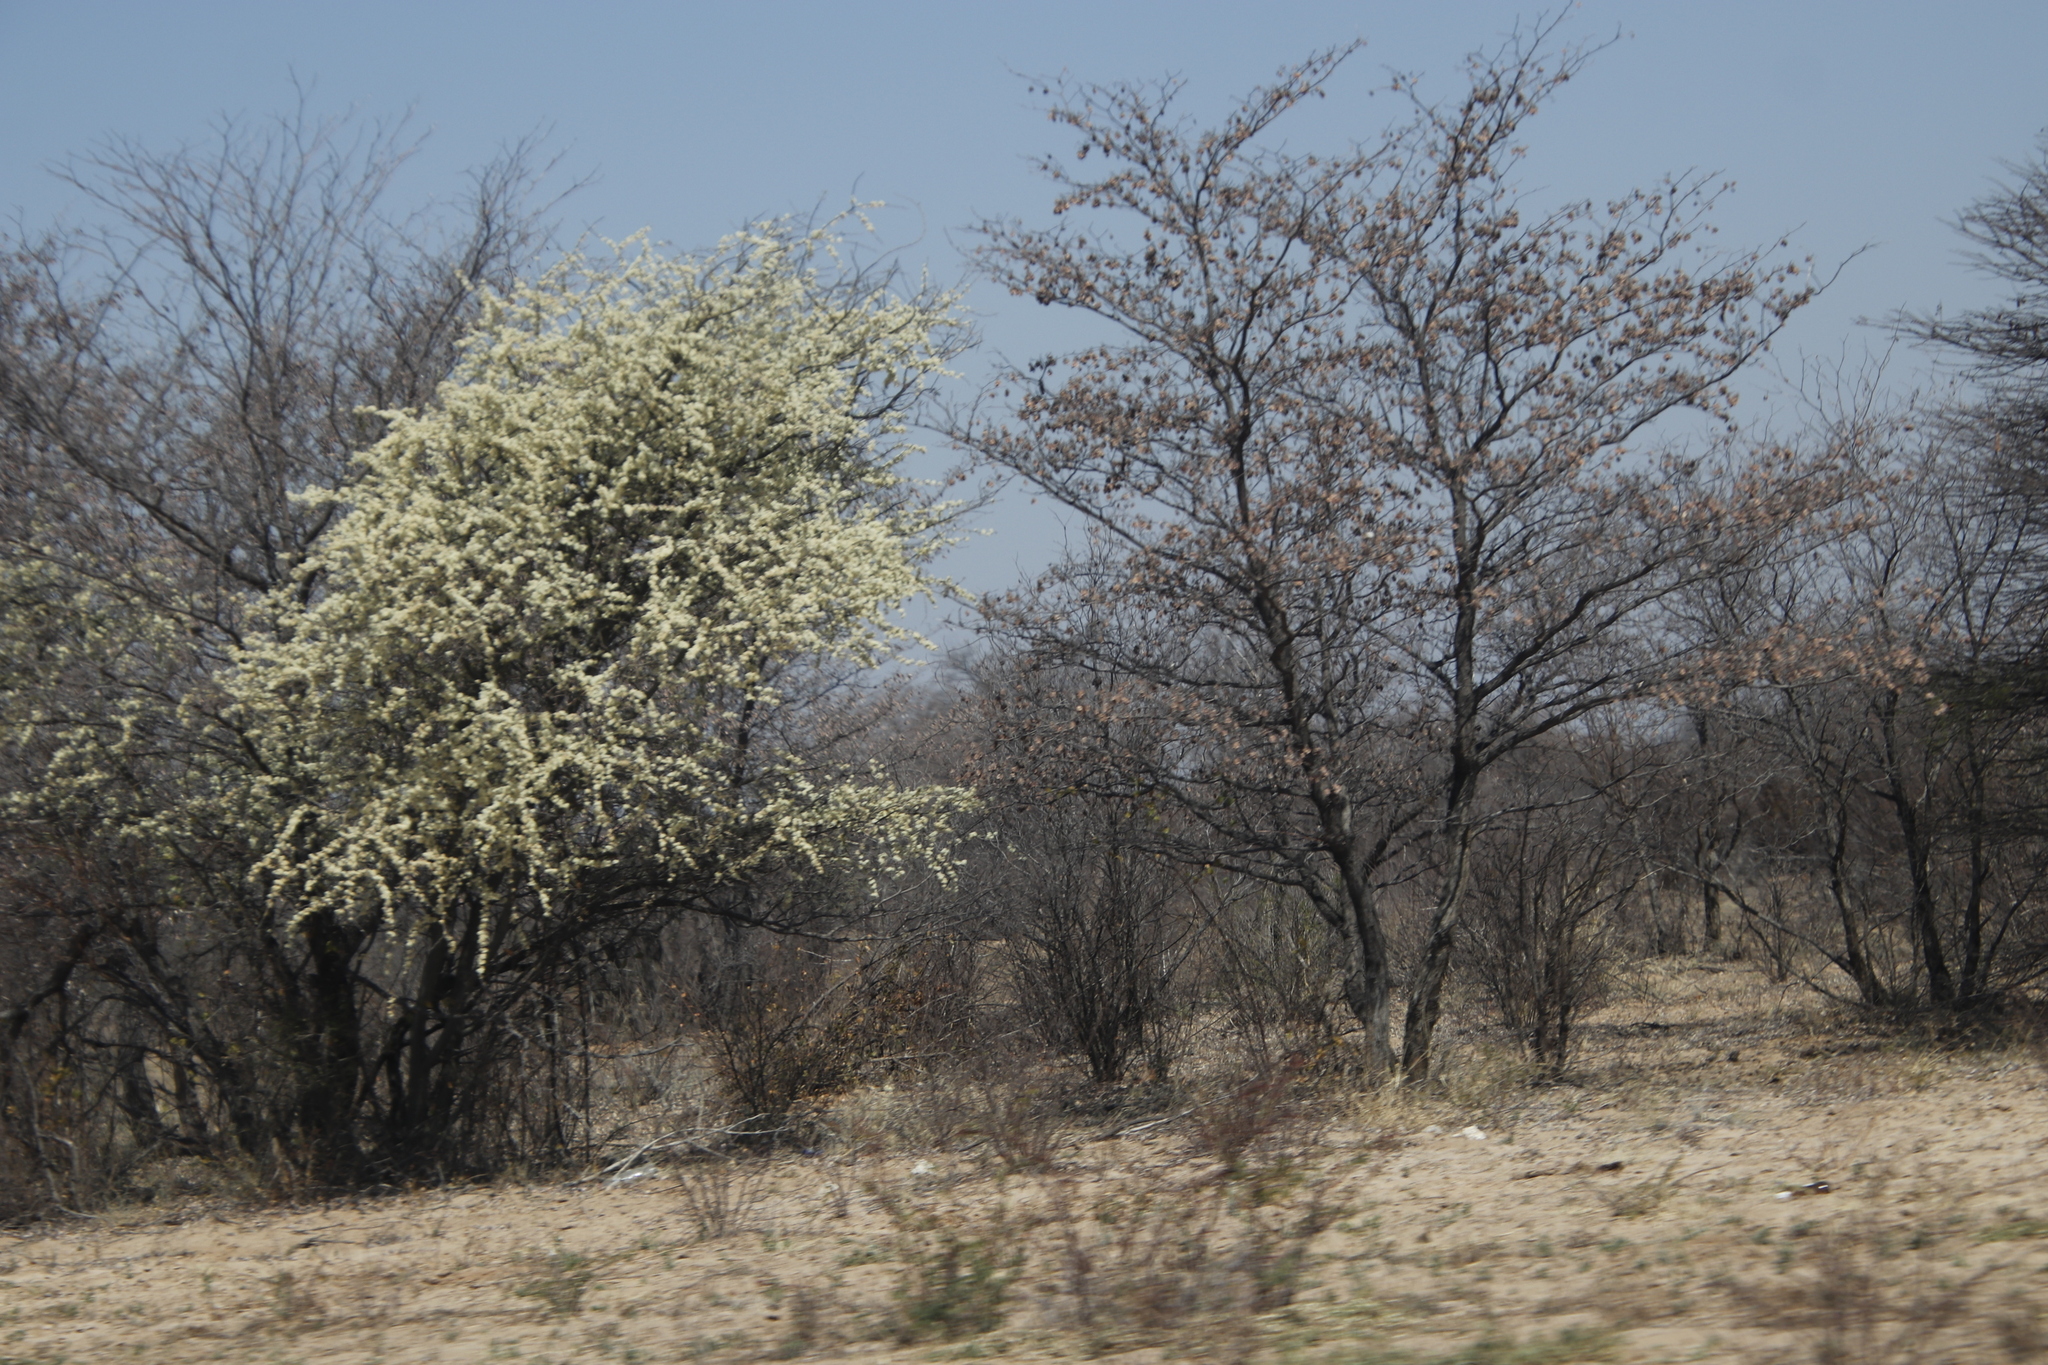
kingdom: Plantae
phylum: Tracheophyta
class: Magnoliopsida
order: Fabales
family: Fabaceae
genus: Senegalia
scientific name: Senegalia mellifera
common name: Hookthorn
